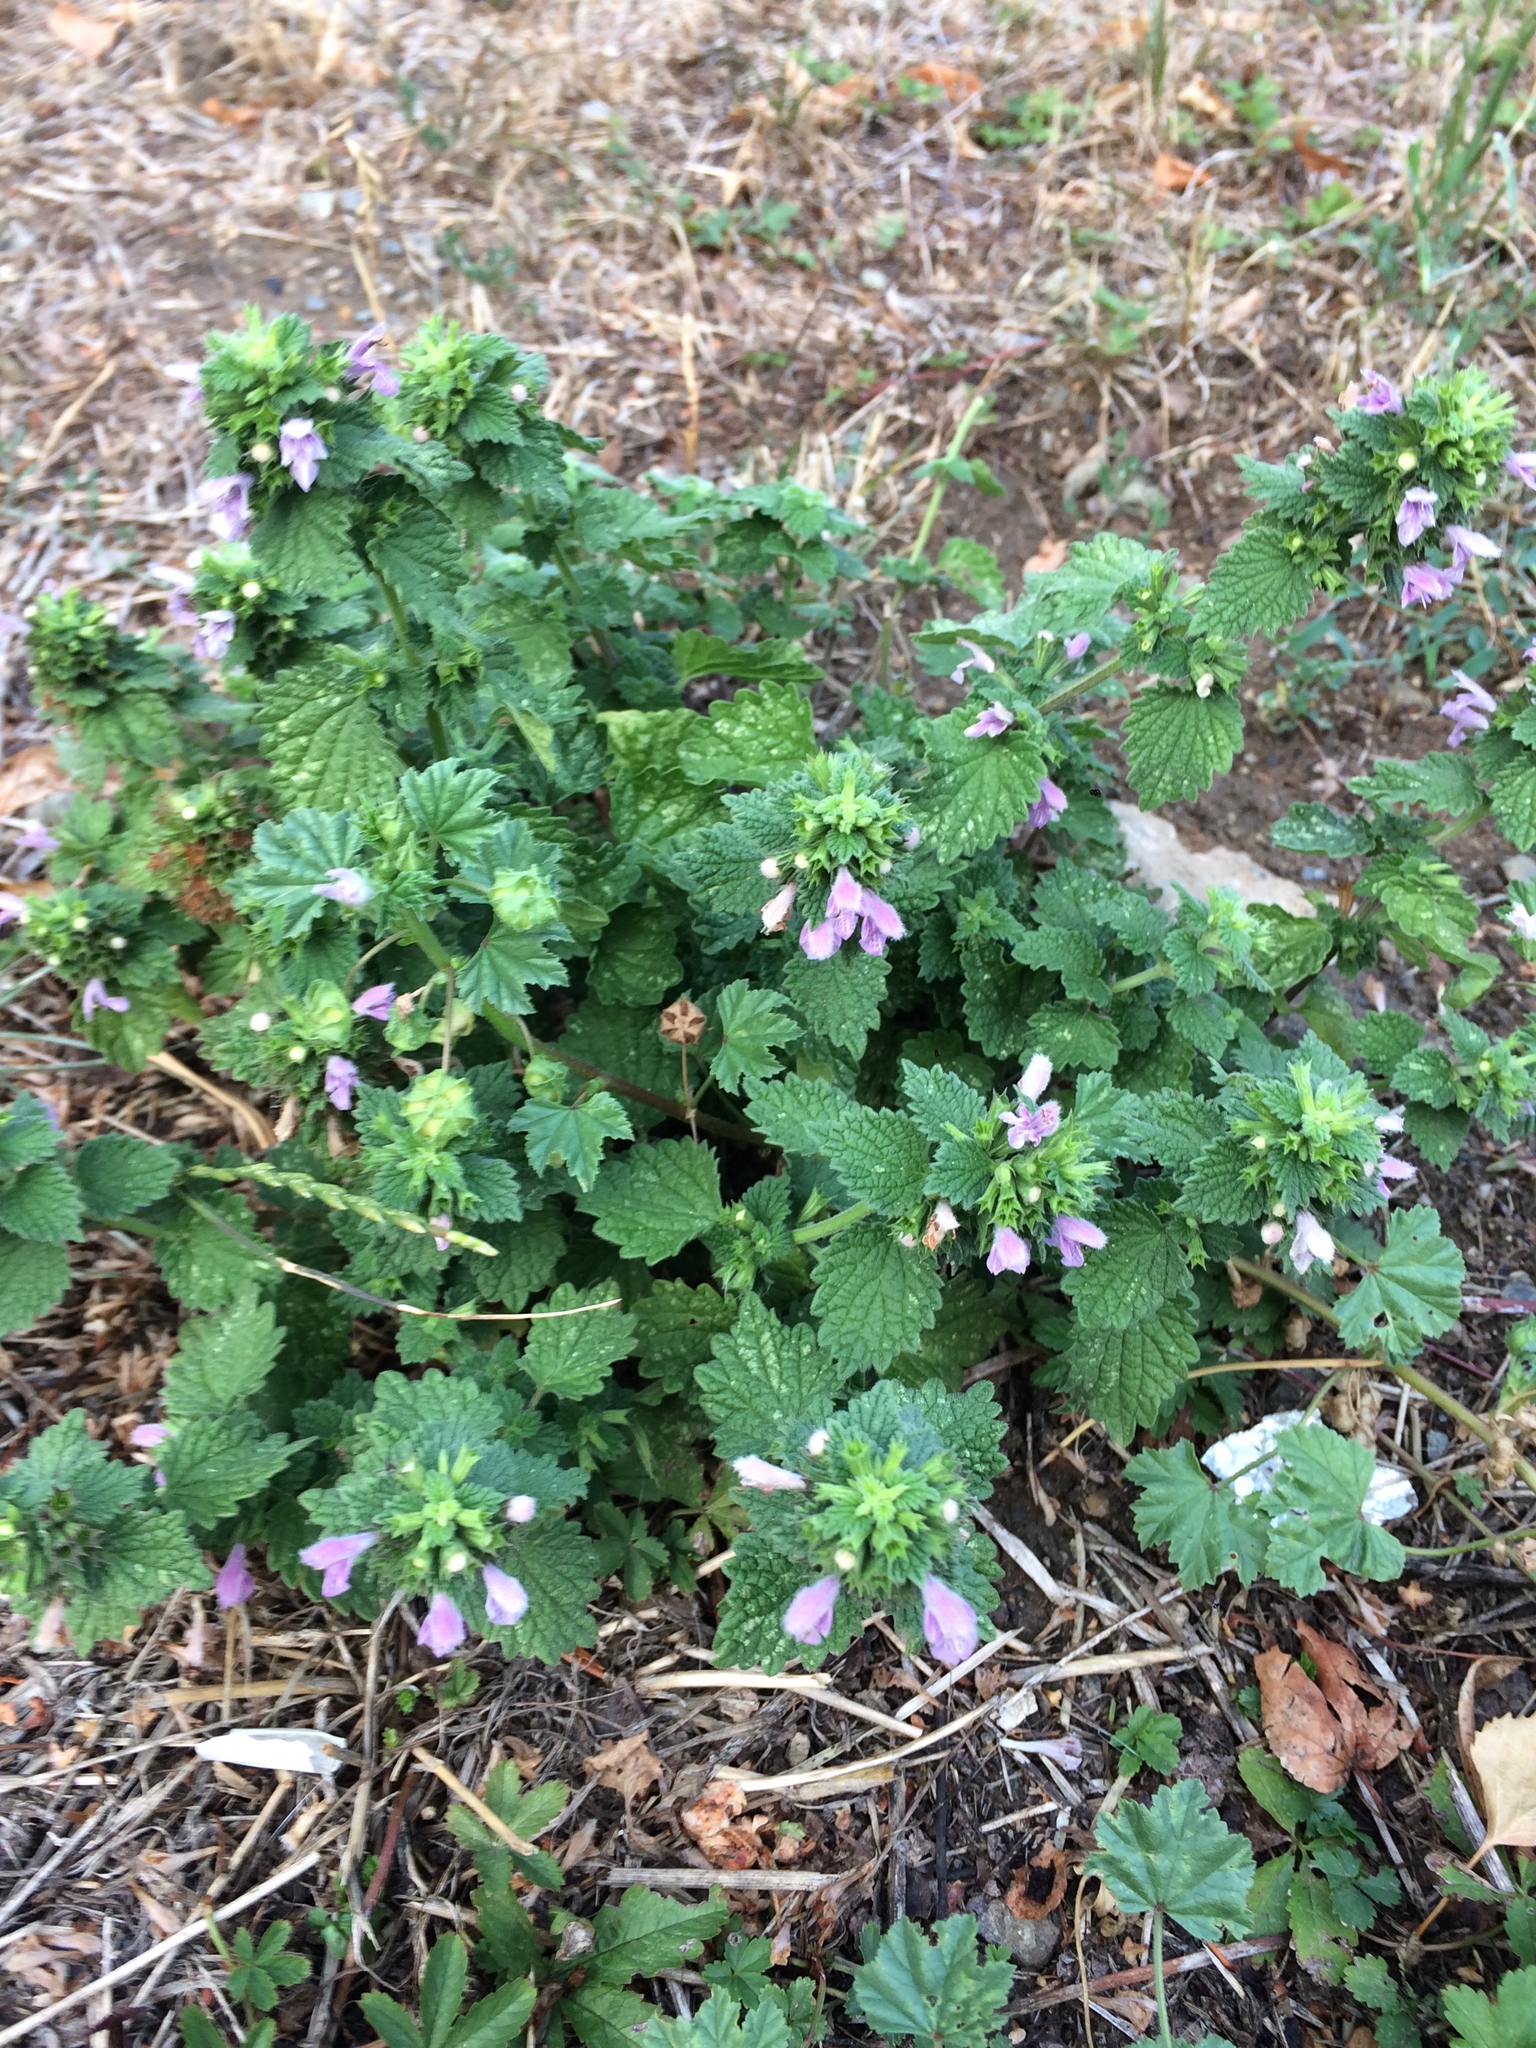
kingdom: Plantae
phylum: Tracheophyta
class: Magnoliopsida
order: Lamiales
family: Lamiaceae
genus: Ballota
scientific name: Ballota nigra
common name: Black horehound
